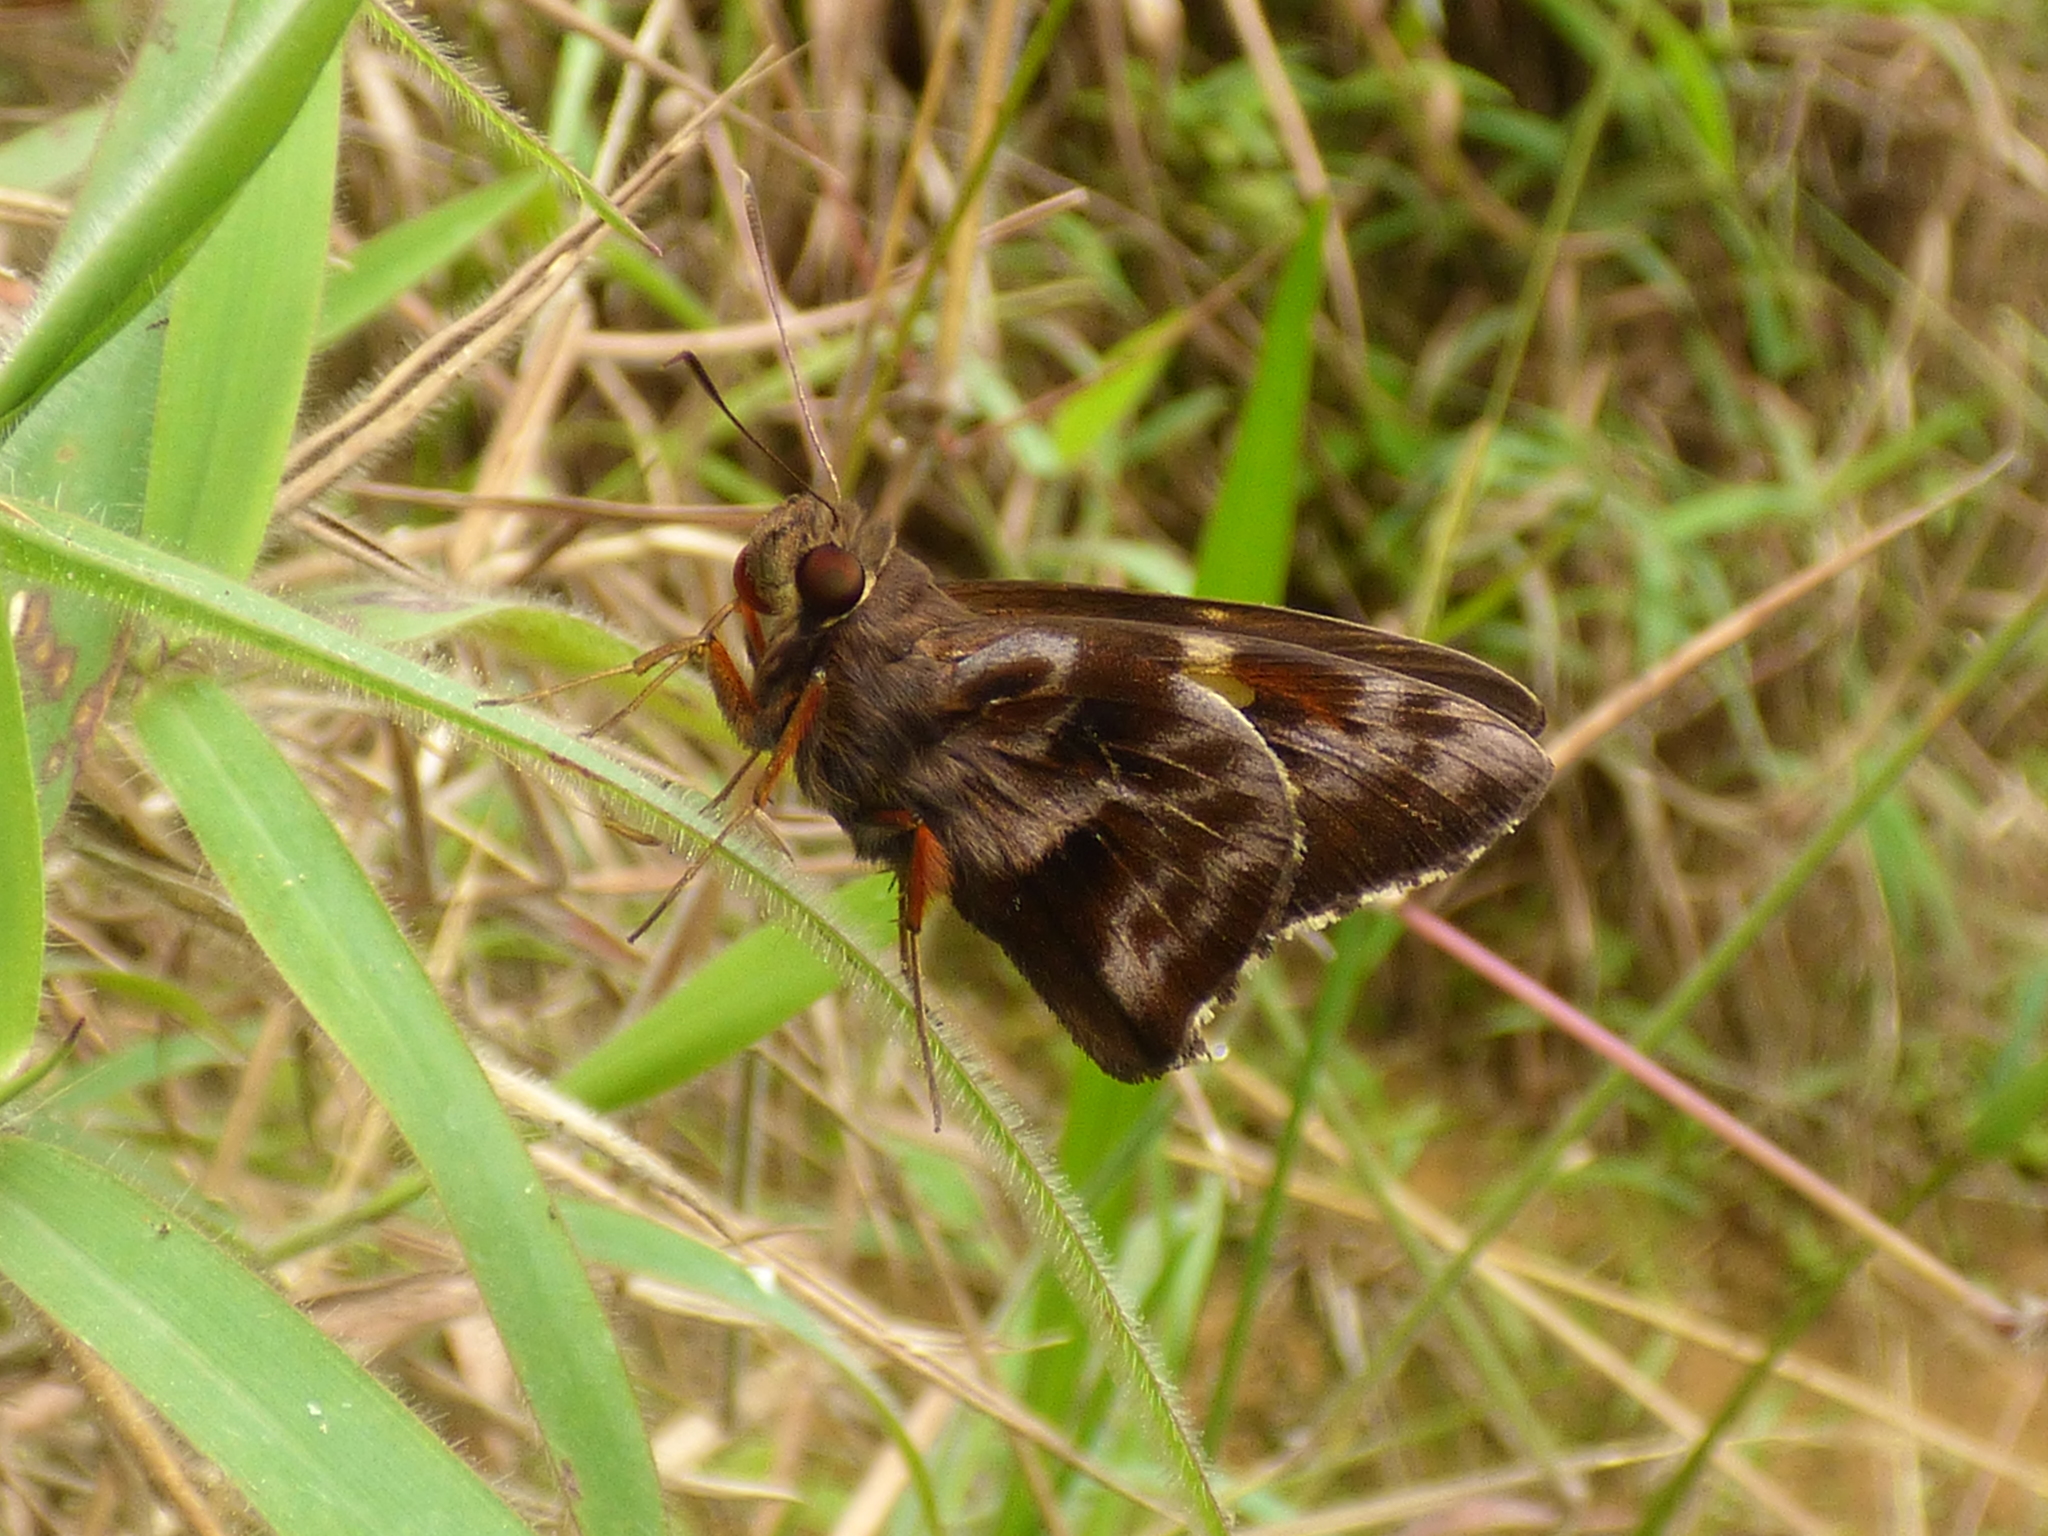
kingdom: Animalia
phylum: Arthropoda
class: Insecta
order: Lepidoptera
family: Hesperiidae
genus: Perichares
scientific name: Perichares philetes
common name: Green-backed ruby-eye
